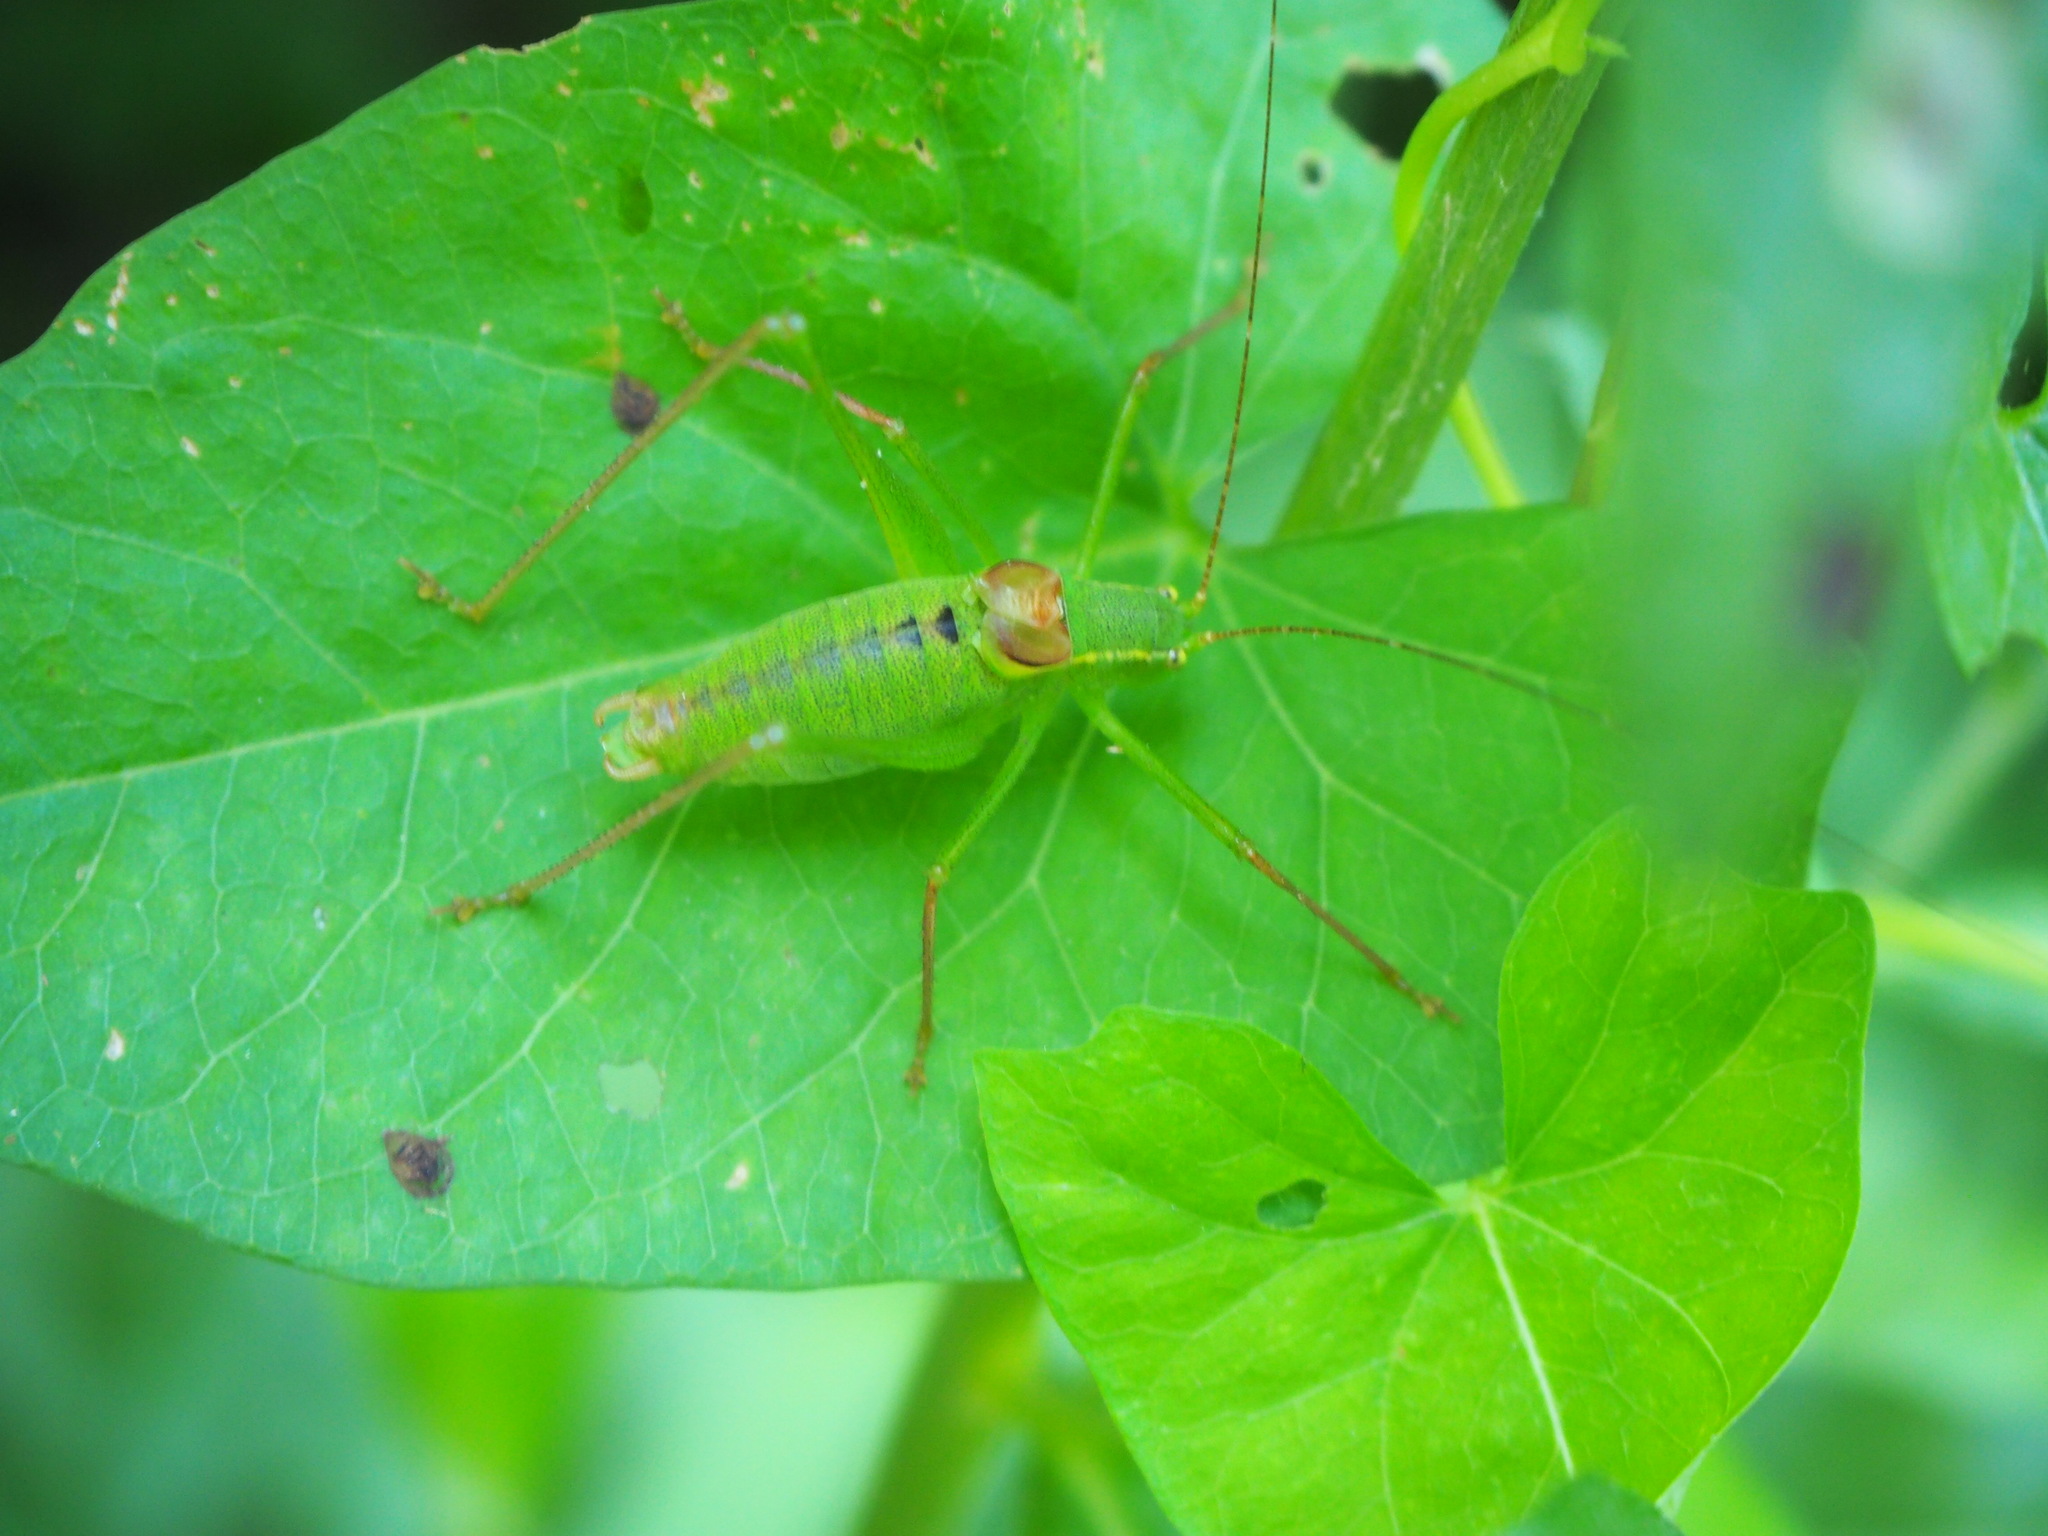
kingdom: Animalia
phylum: Arthropoda
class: Insecta
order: Orthoptera
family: Tettigoniidae
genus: Leptophyes
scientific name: Leptophyes laticauda
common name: Long-tailed speckled bush-cricket
